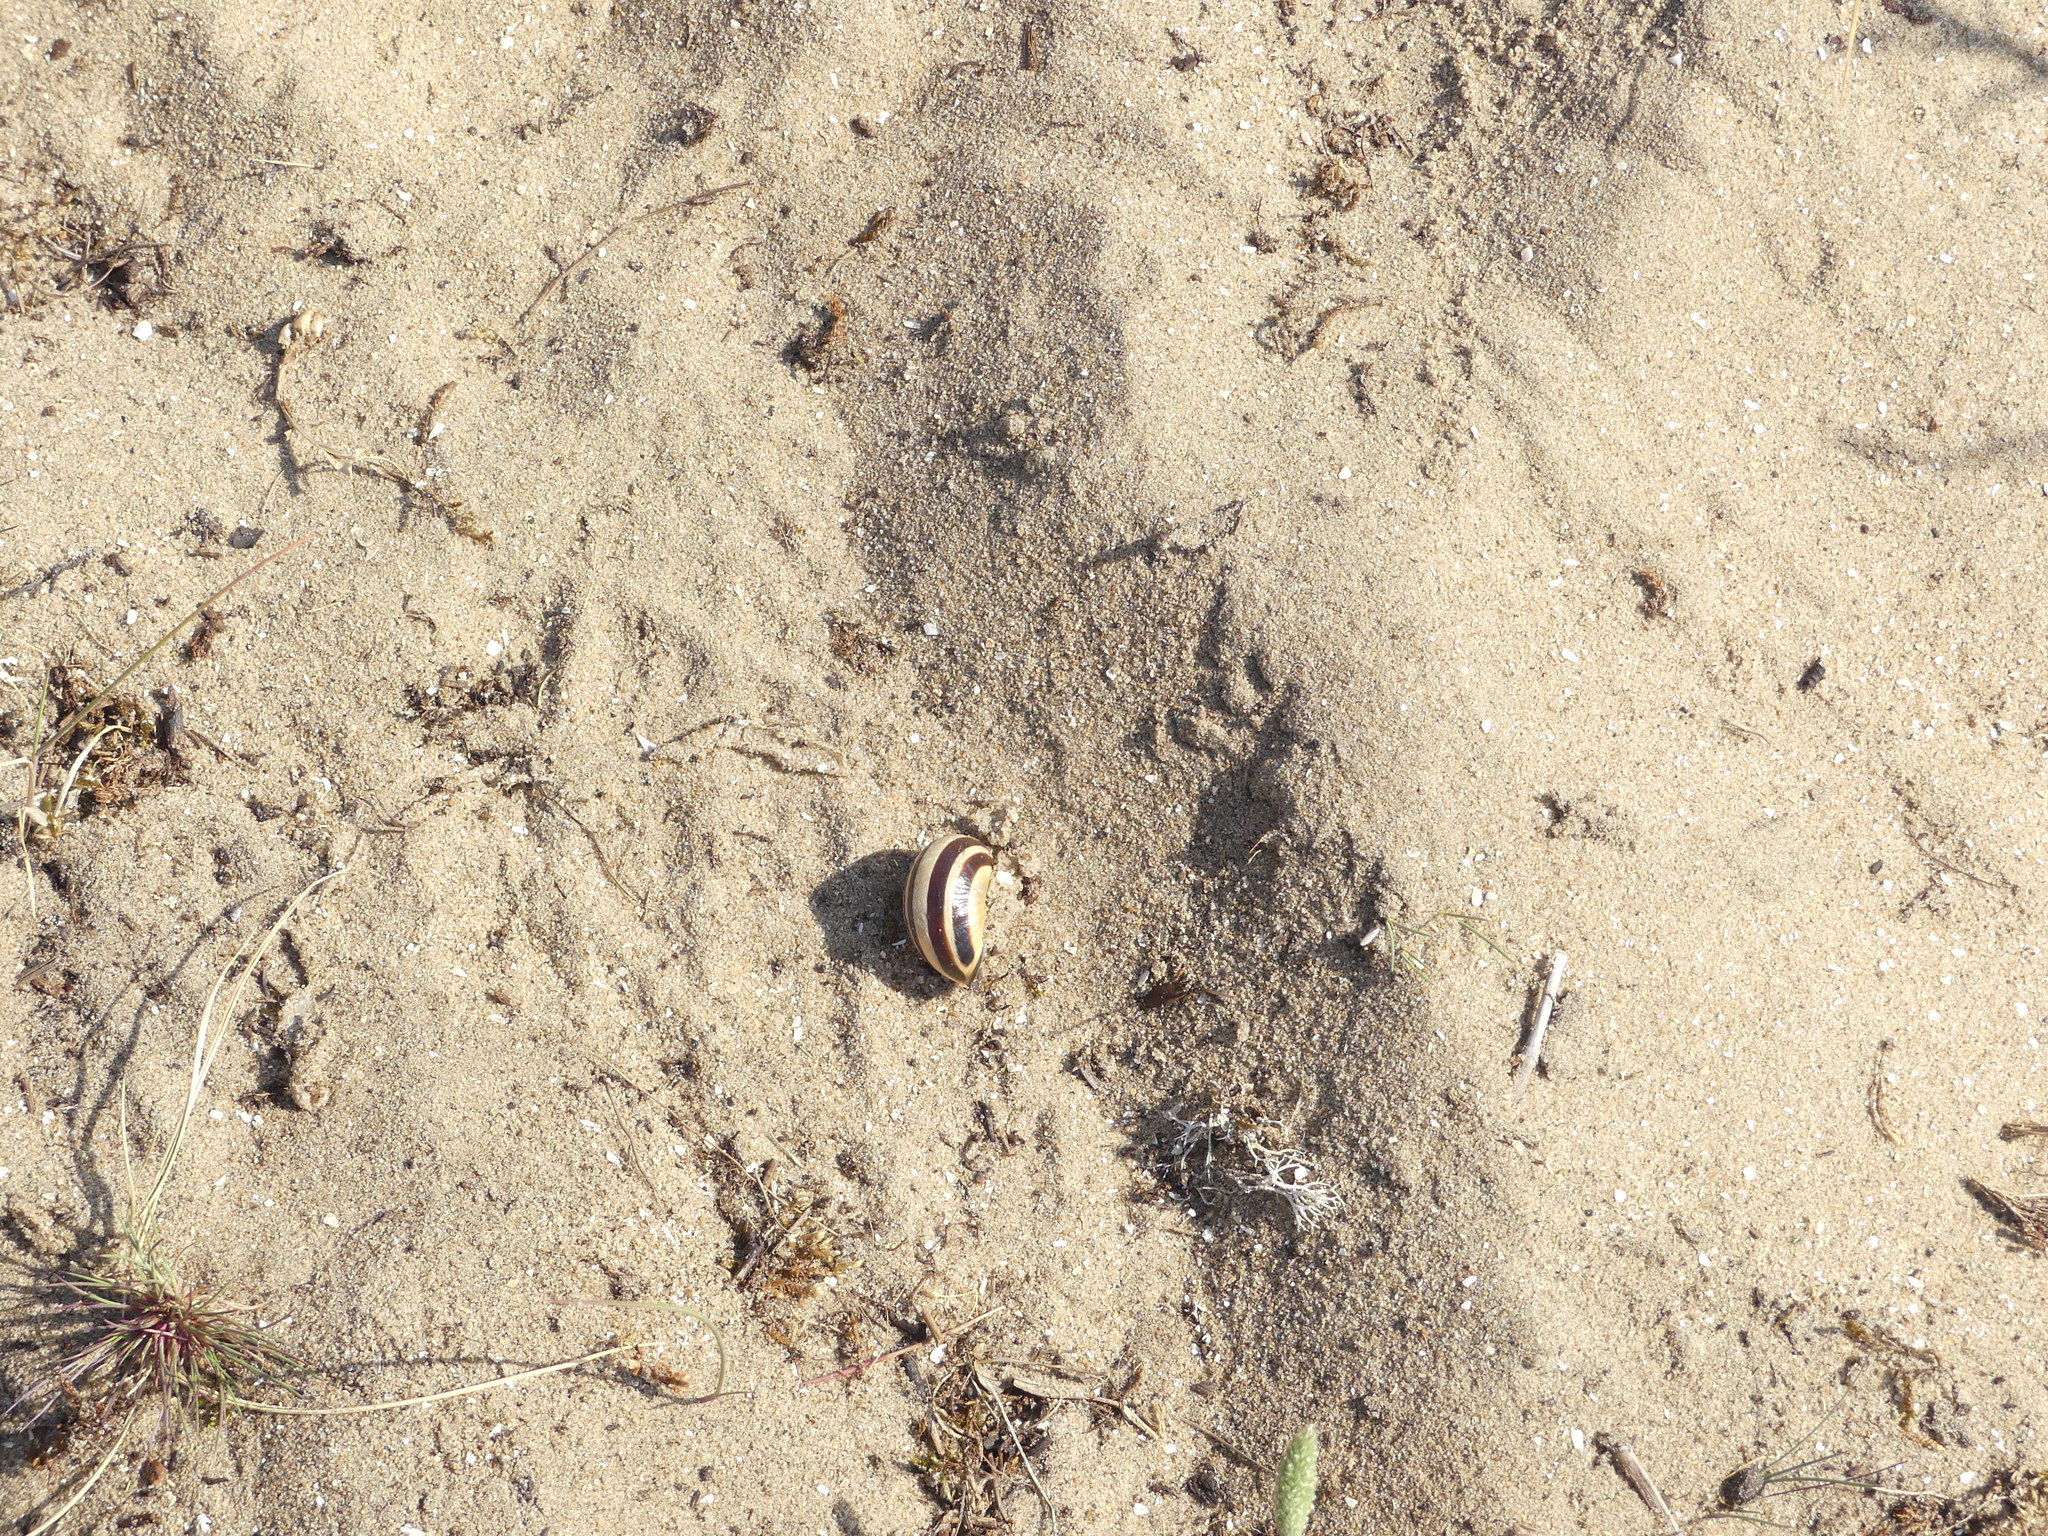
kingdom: Animalia
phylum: Mollusca
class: Gastropoda
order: Stylommatophora
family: Helicidae
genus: Cepaea
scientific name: Cepaea nemoralis
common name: Grovesnail
